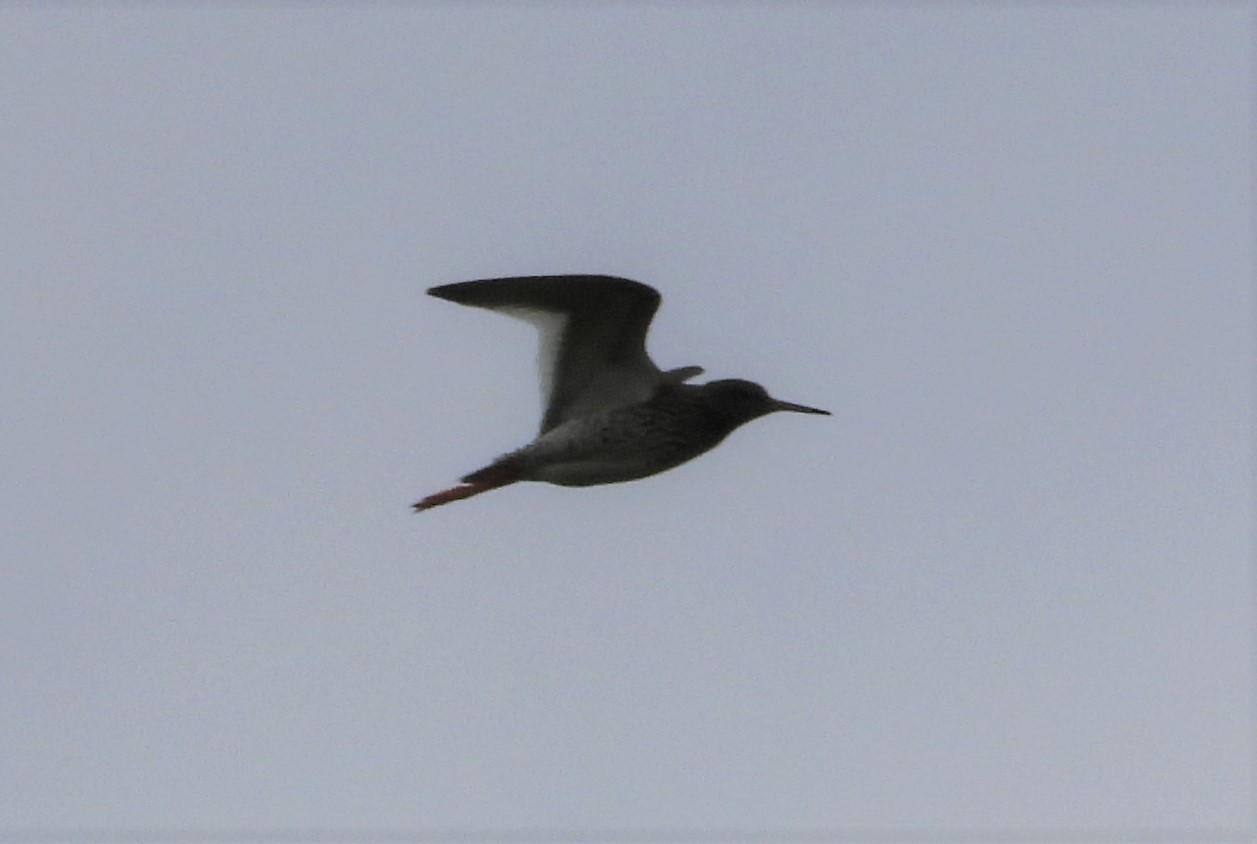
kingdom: Animalia
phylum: Chordata
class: Aves
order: Charadriiformes
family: Scolopacidae
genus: Tringa
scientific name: Tringa totanus
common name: Common redshank
